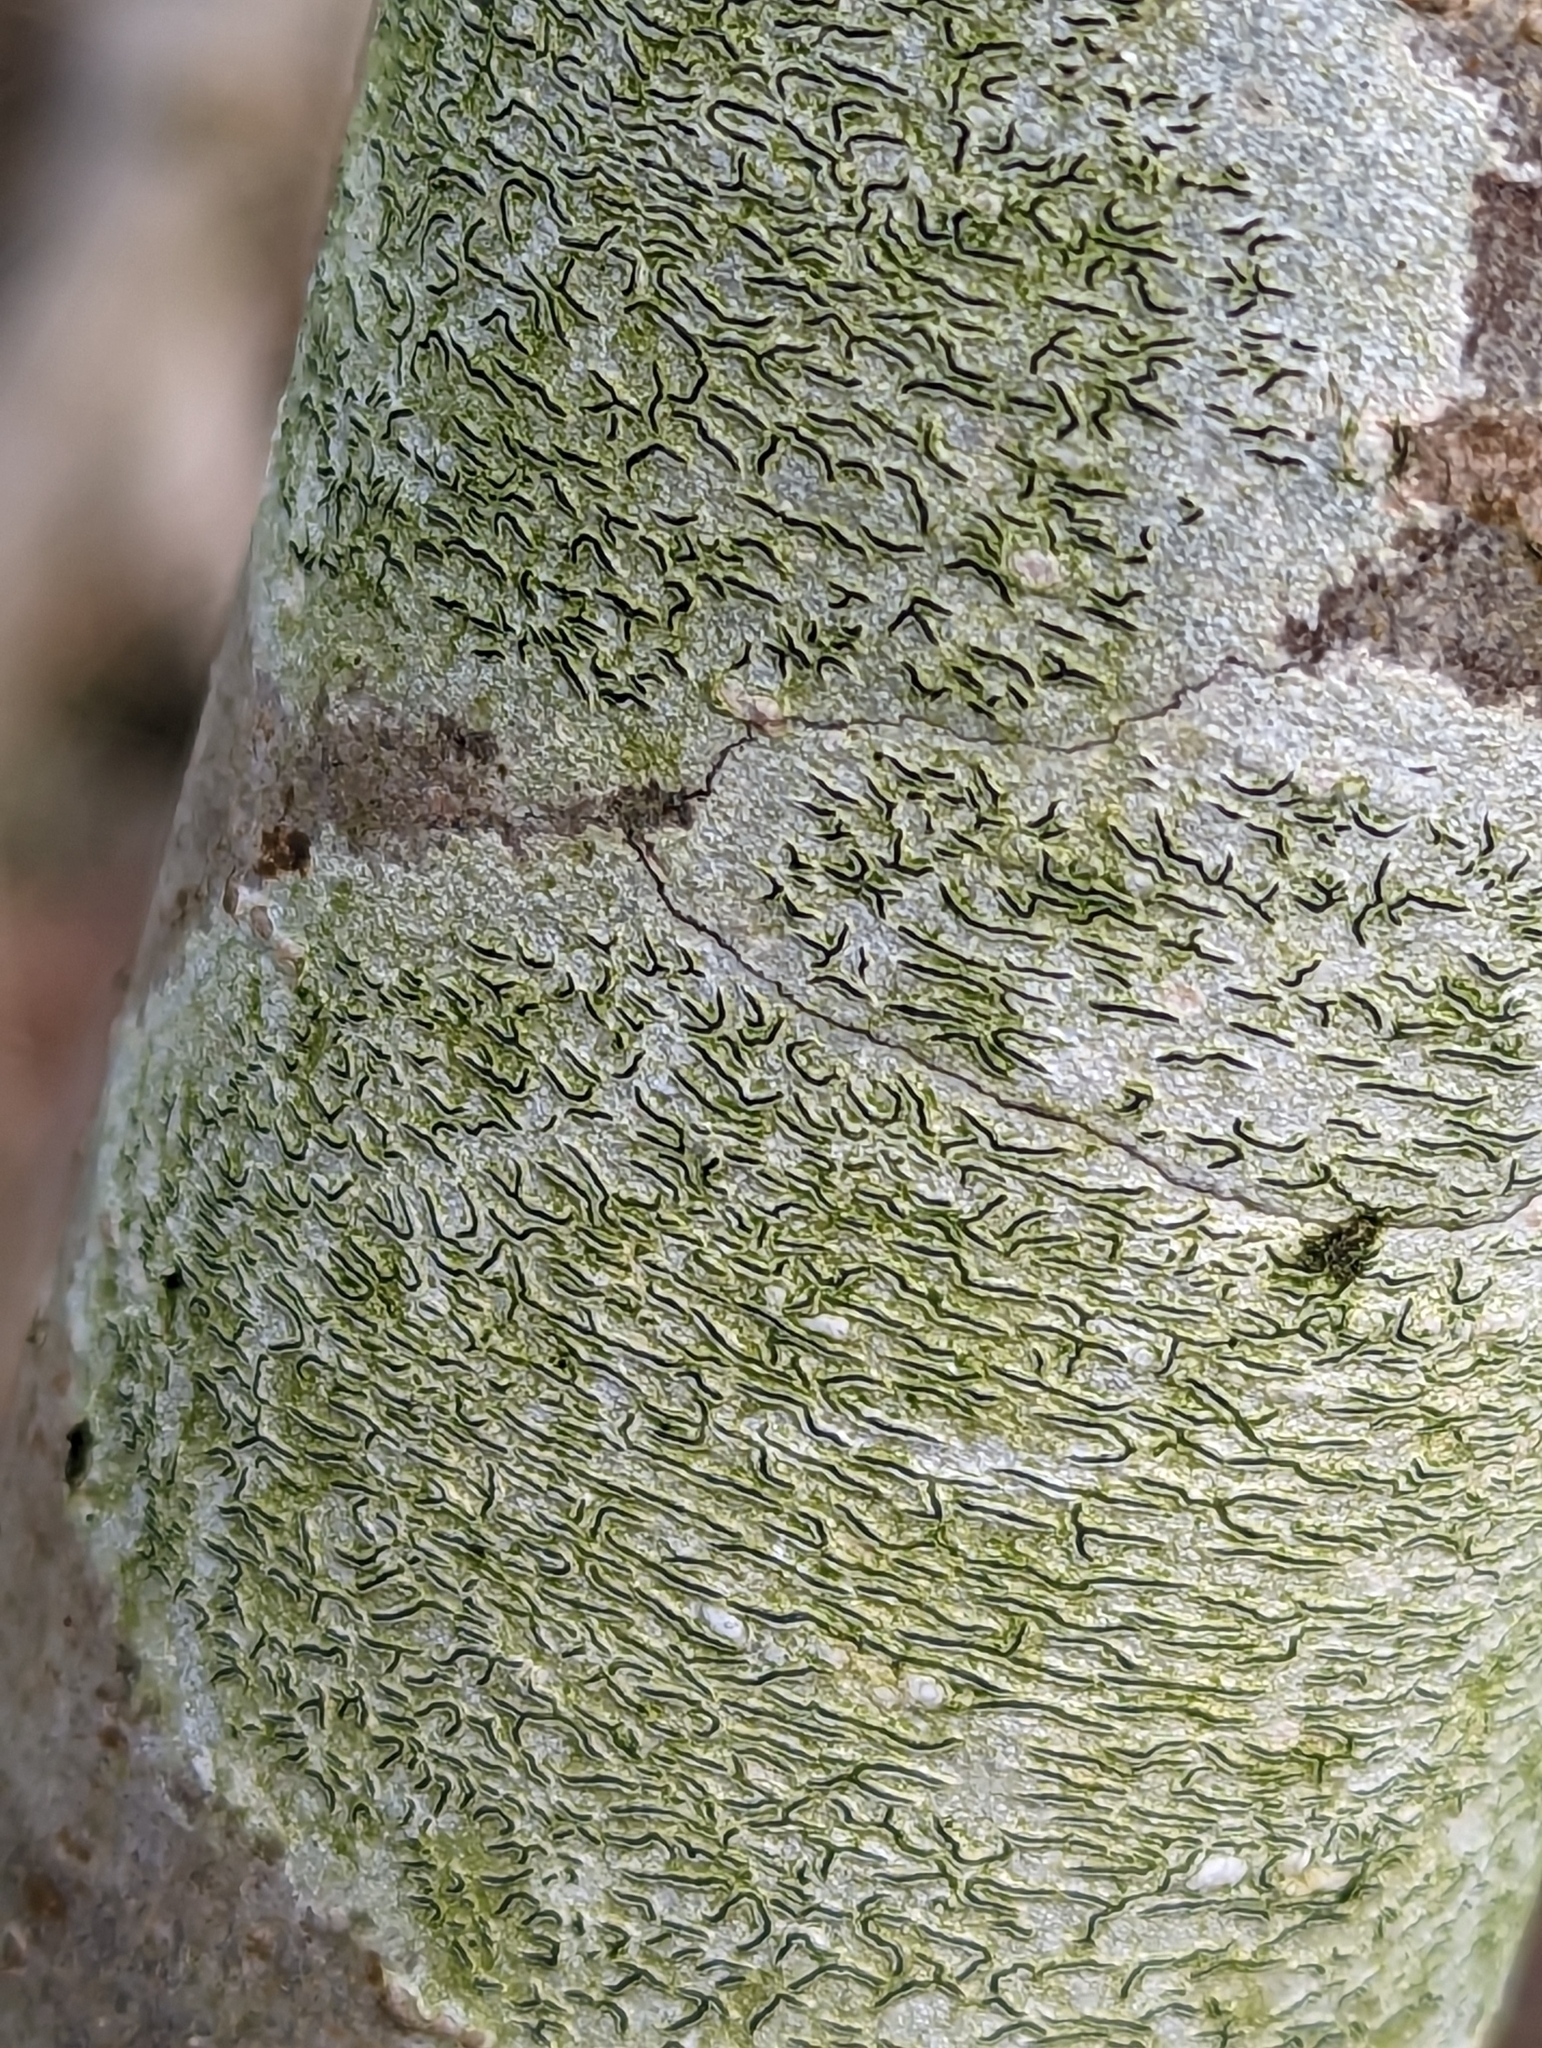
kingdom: Fungi
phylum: Ascomycota
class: Lecanoromycetes
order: Ostropales
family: Graphidaceae
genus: Graphis
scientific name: Graphis scripta
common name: Script lichen
